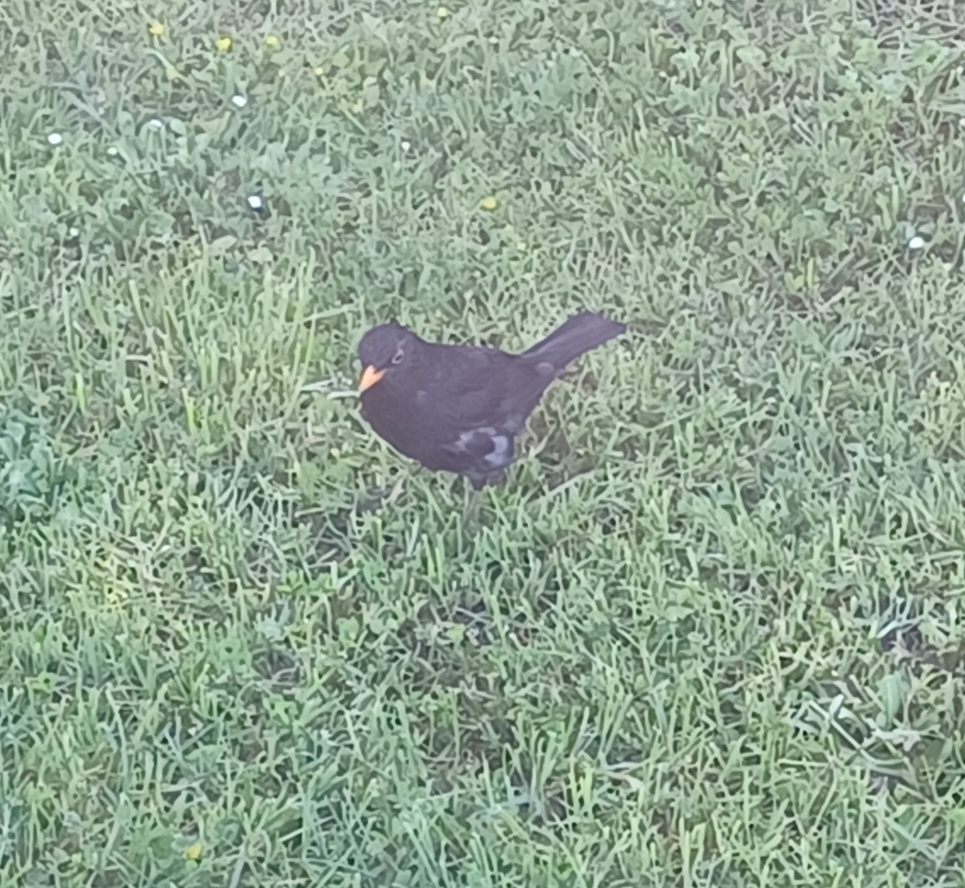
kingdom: Animalia
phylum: Chordata
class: Aves
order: Passeriformes
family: Turdidae
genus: Turdus
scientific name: Turdus merula
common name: Common blackbird
